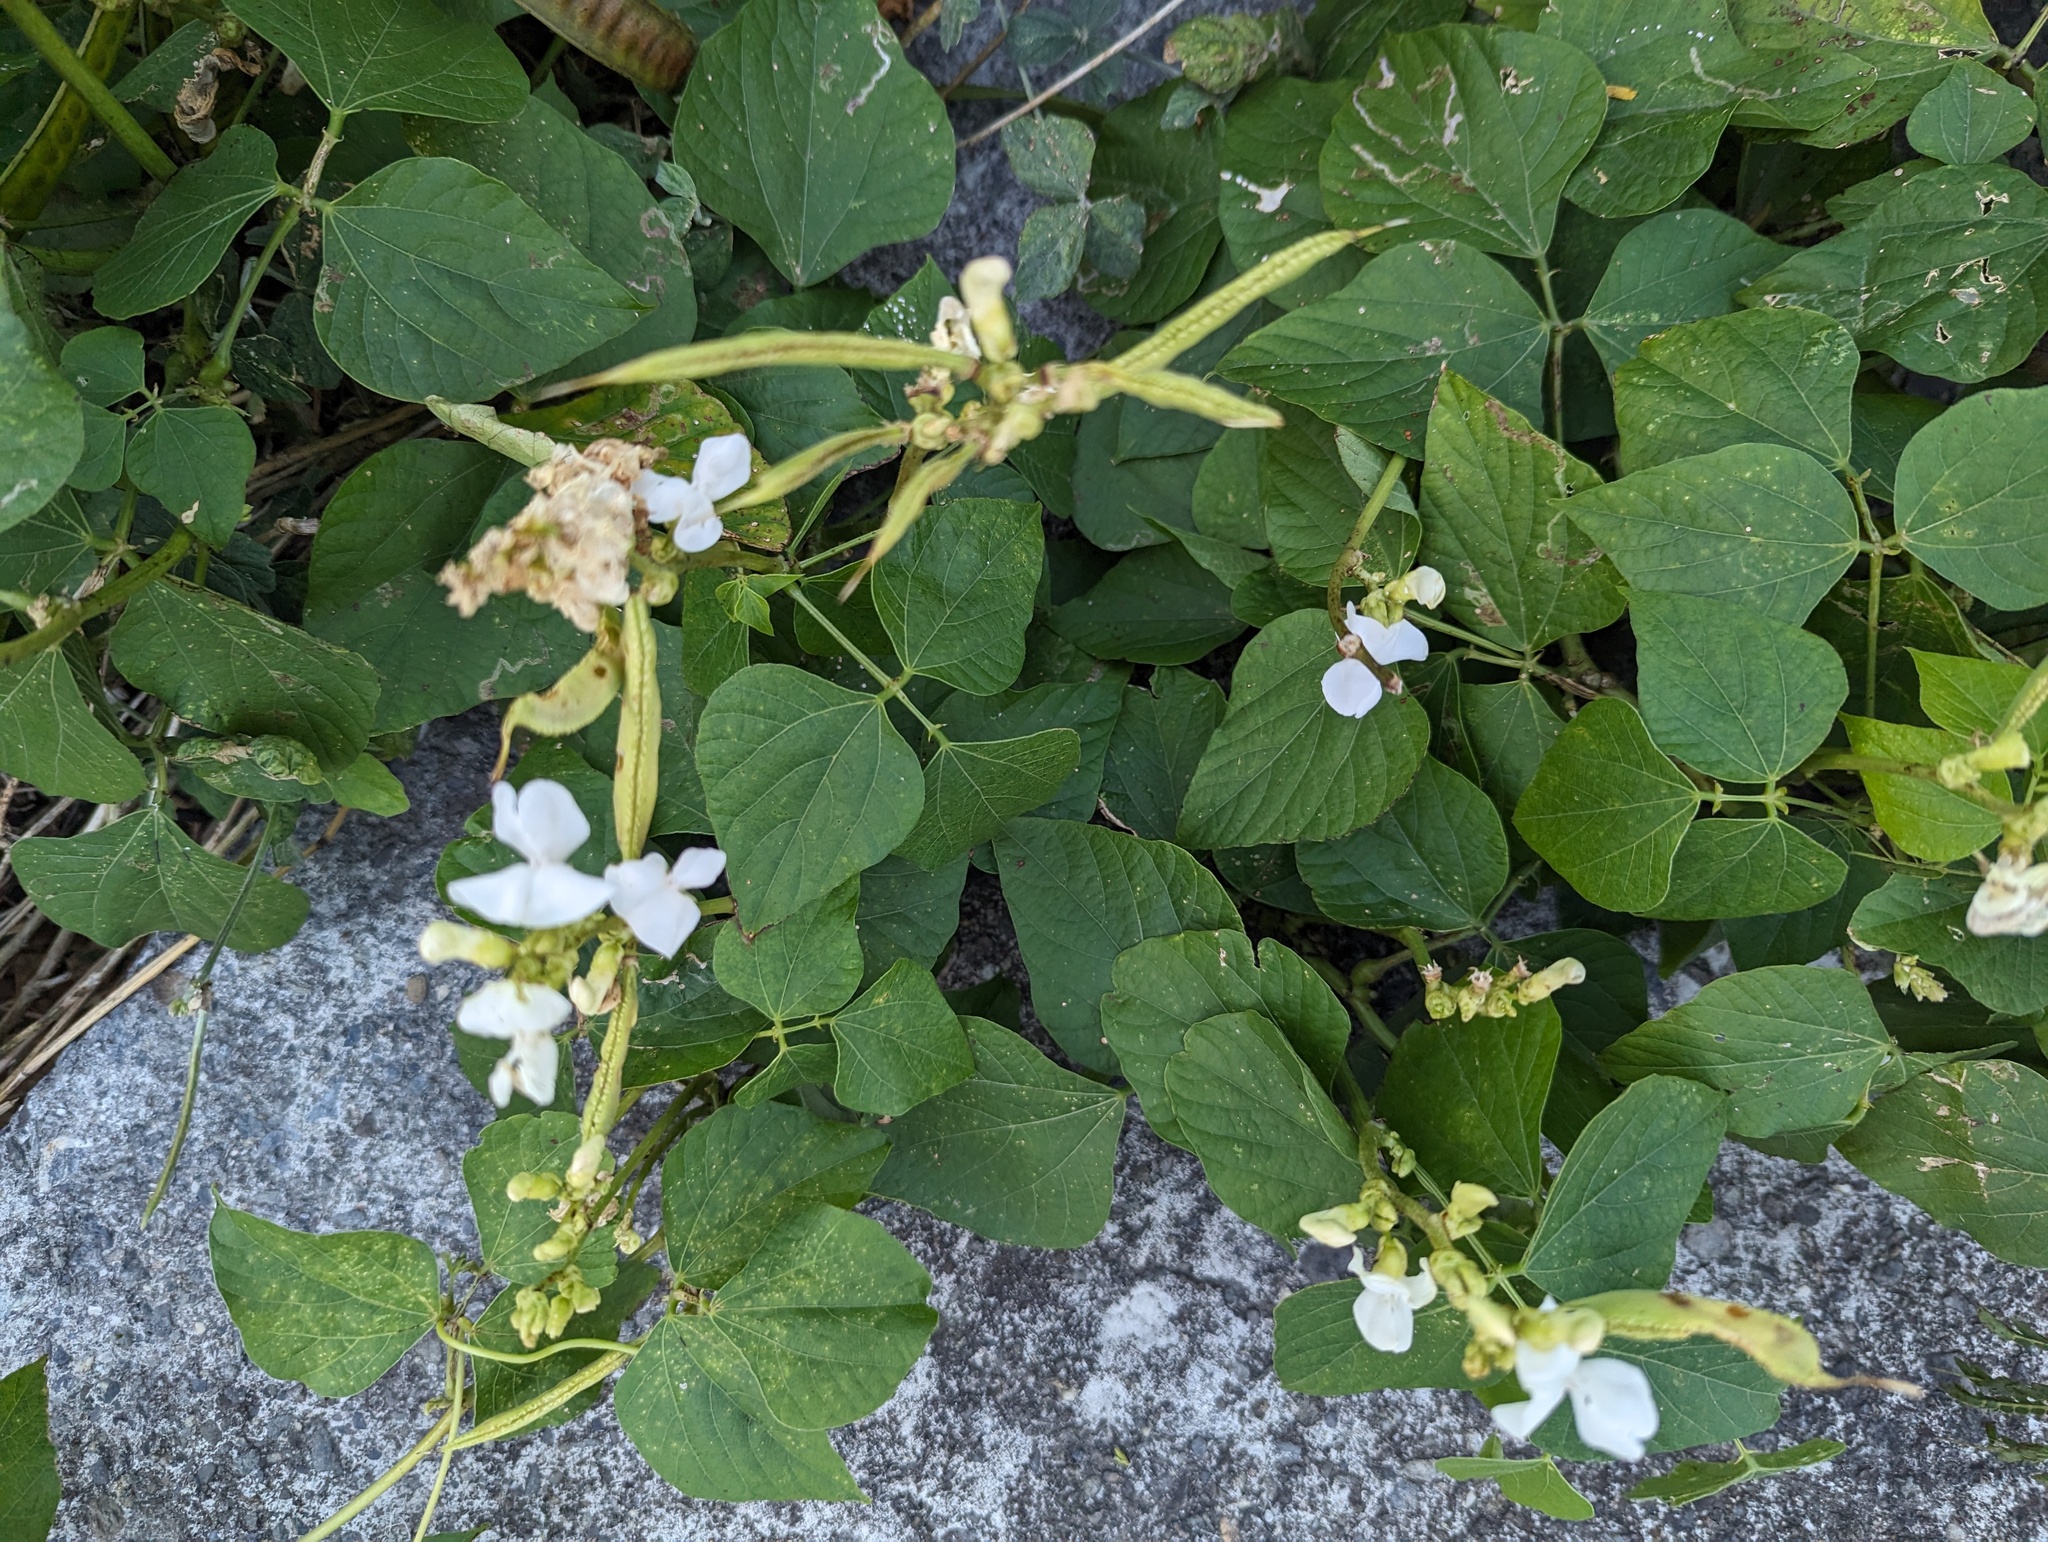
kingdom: Plantae
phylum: Tracheophyta
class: Magnoliopsida
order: Fabales
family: Fabaceae
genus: Lablab
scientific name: Lablab purpureus
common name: Lablab-bean
